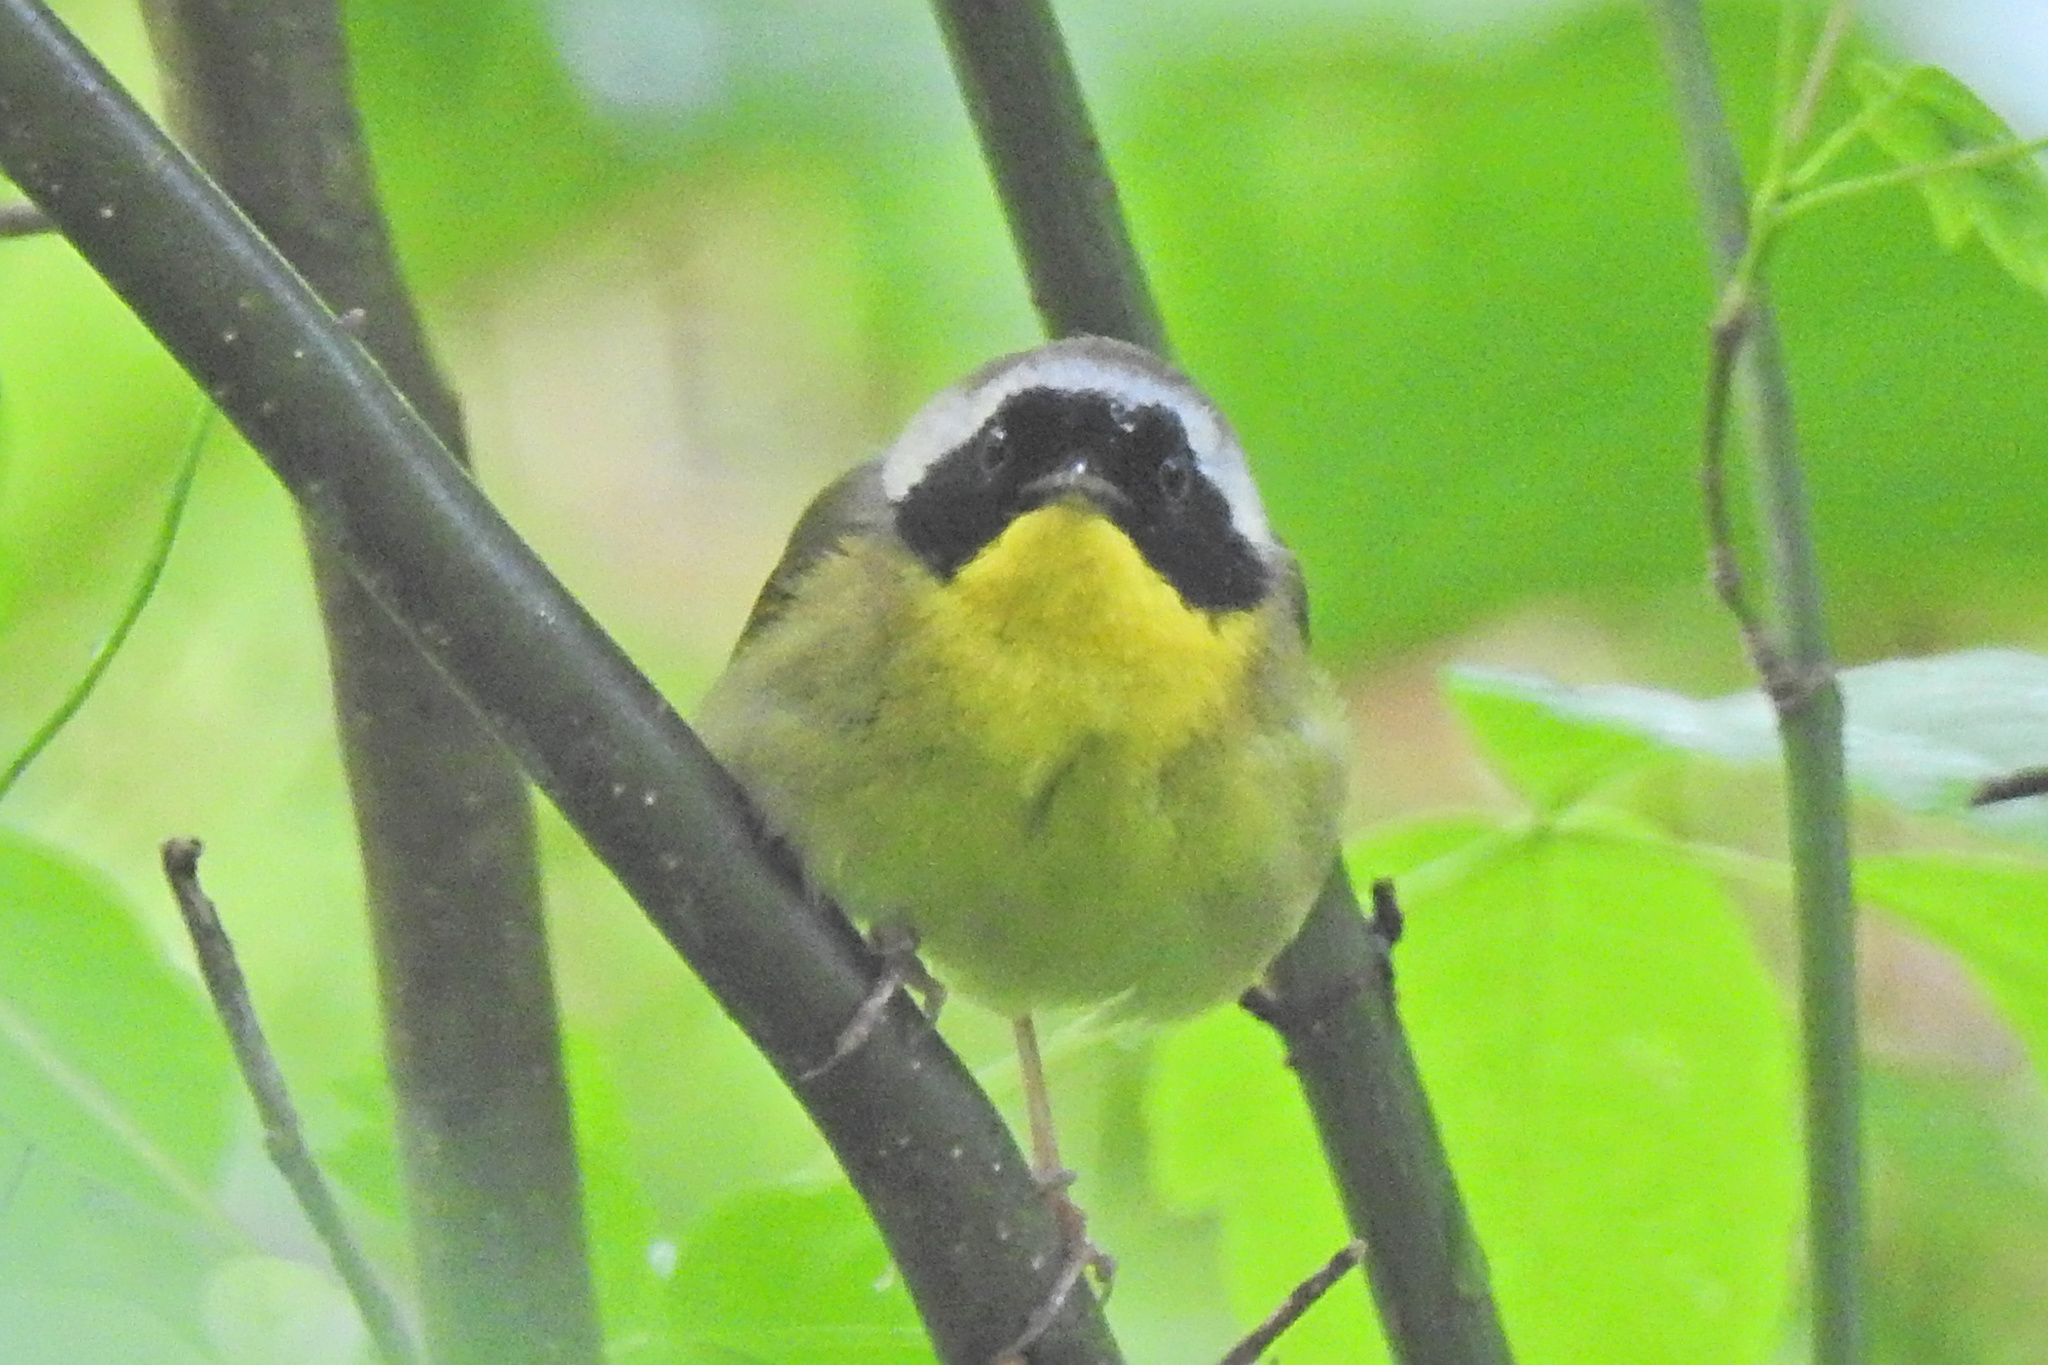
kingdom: Animalia
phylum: Chordata
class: Aves
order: Passeriformes
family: Parulidae
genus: Geothlypis
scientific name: Geothlypis trichas
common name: Common yellowthroat
